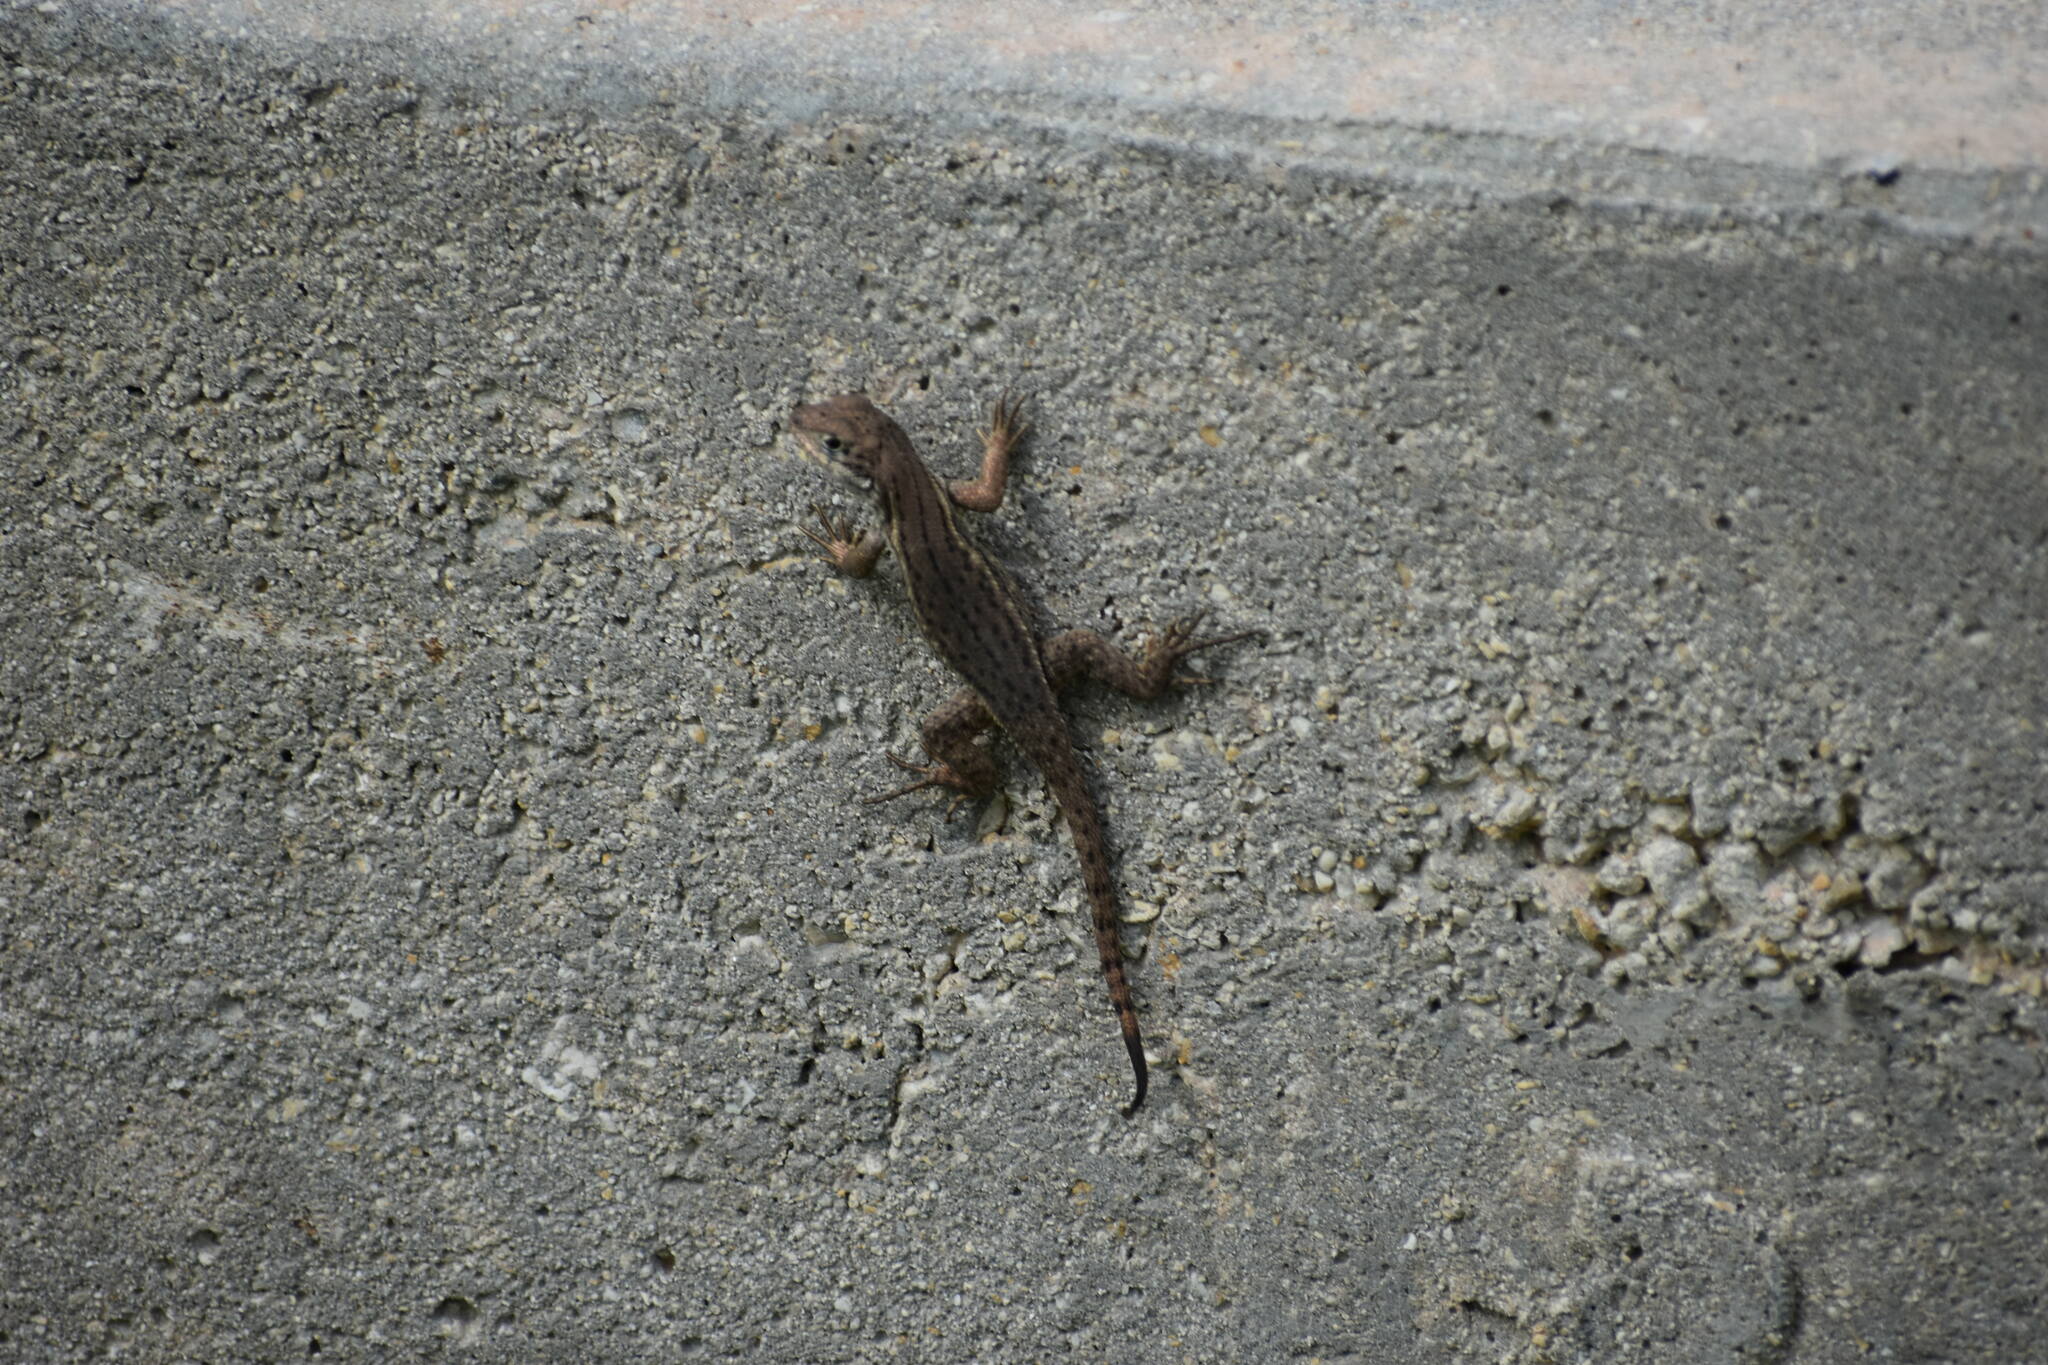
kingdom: Animalia
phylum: Chordata
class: Squamata
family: Leiocephalidae
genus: Leiocephalus
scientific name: Leiocephalus carinatus
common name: Northern curly-tailed lizard
